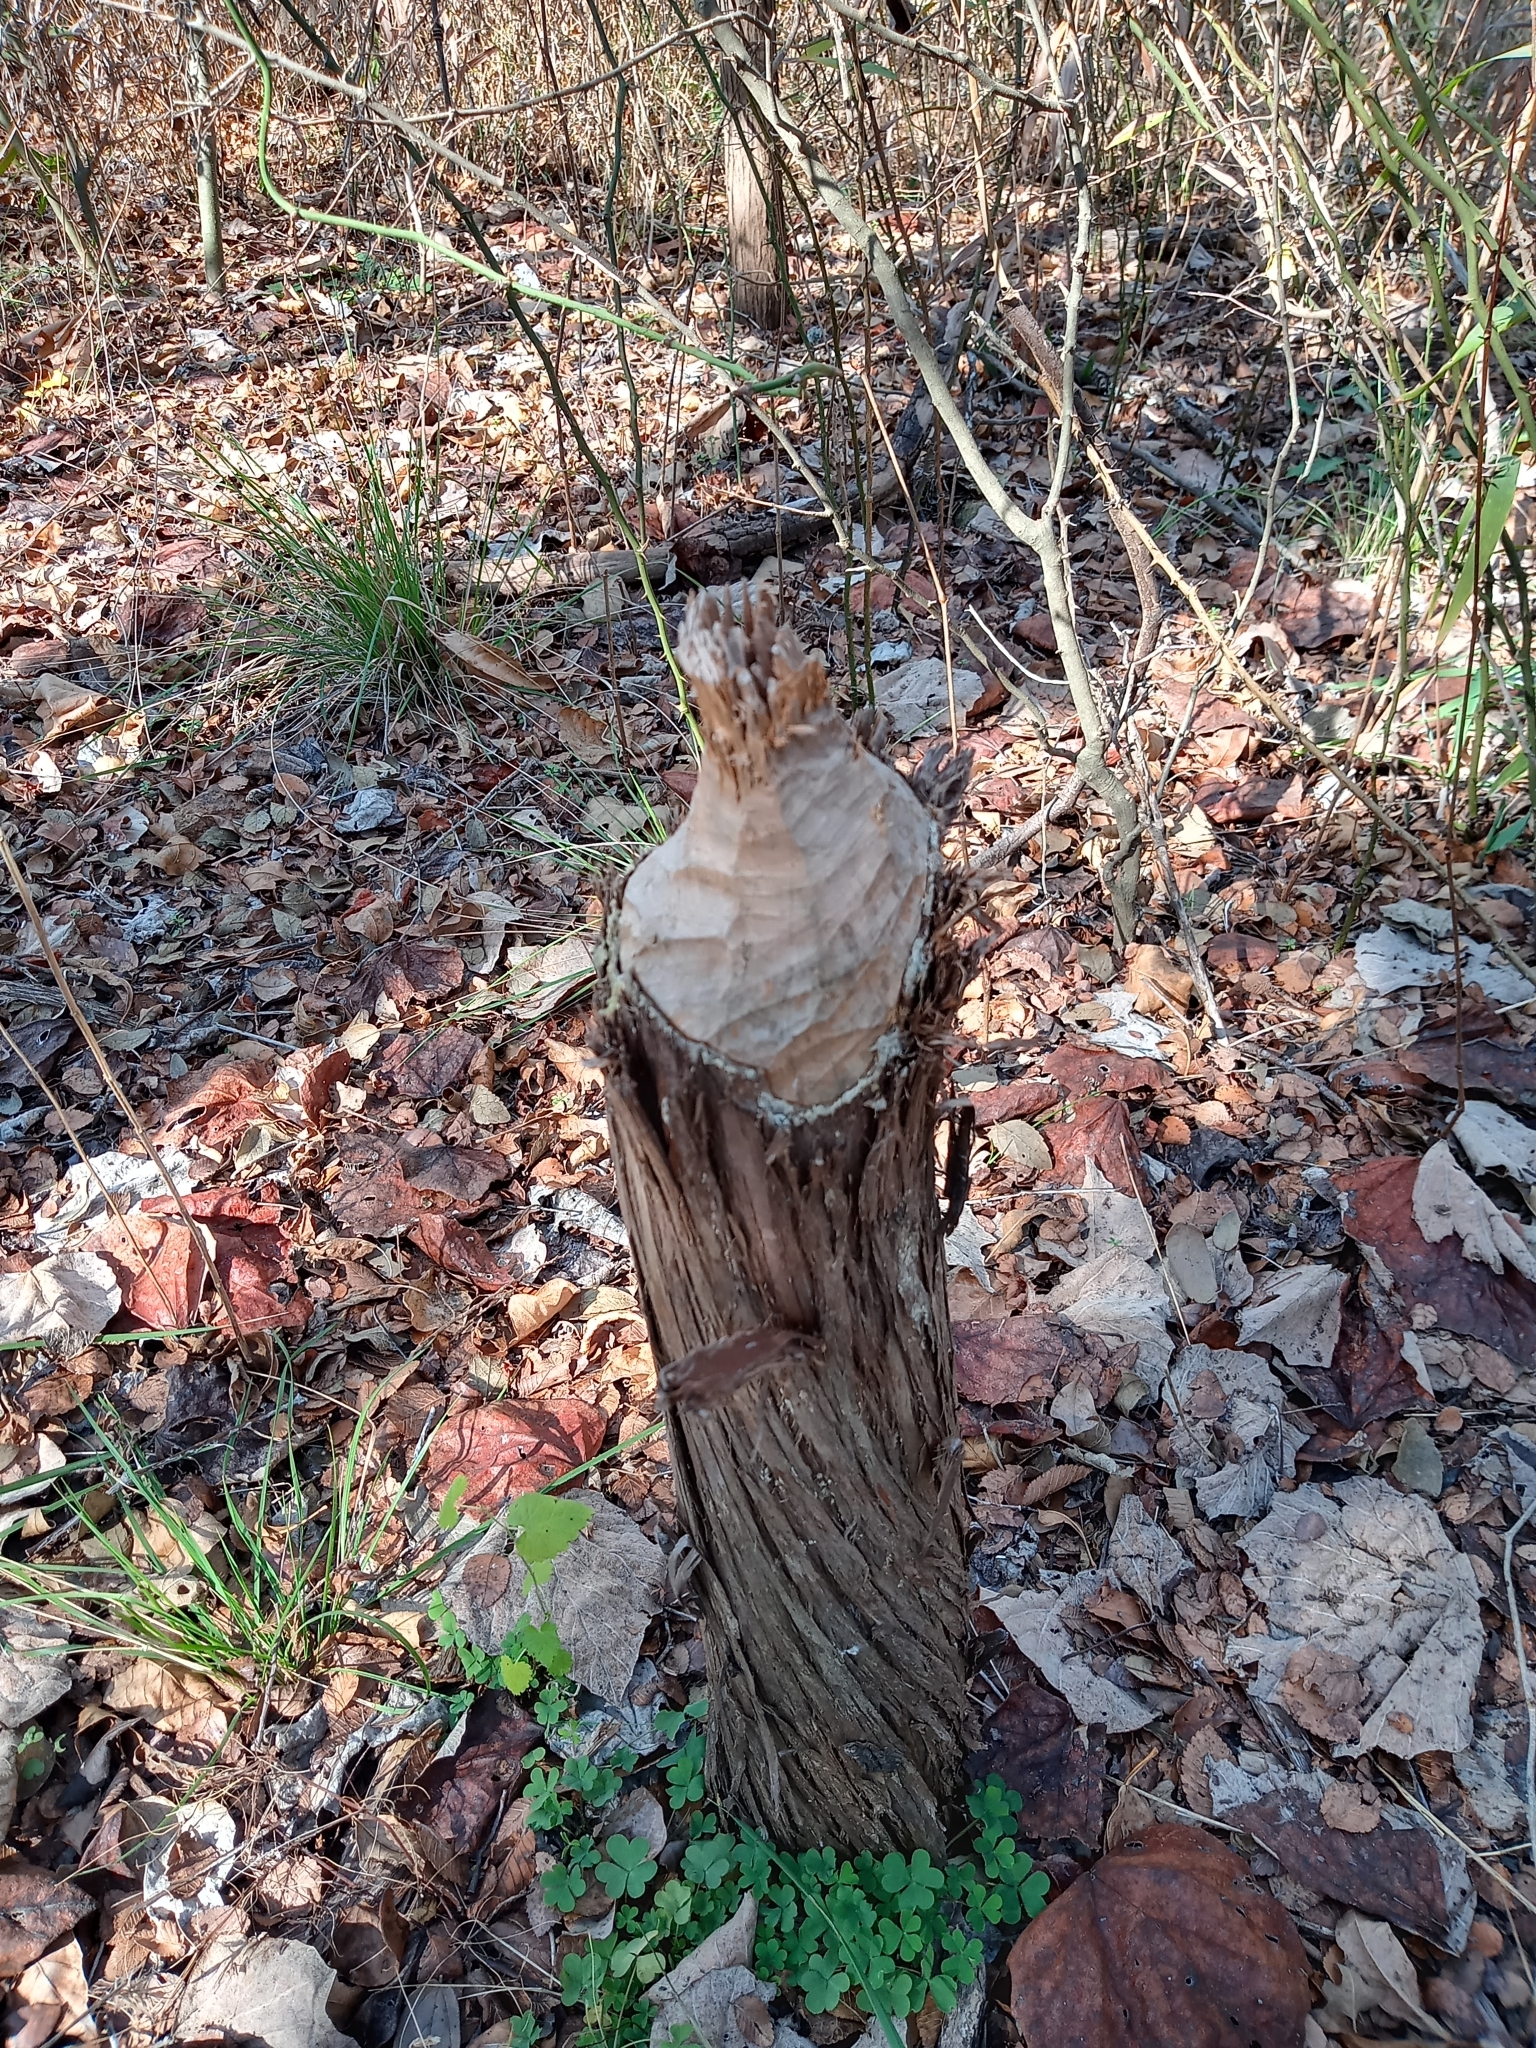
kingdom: Animalia
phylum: Chordata
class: Mammalia
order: Rodentia
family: Castoridae
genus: Castor
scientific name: Castor canadensis
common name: American beaver
